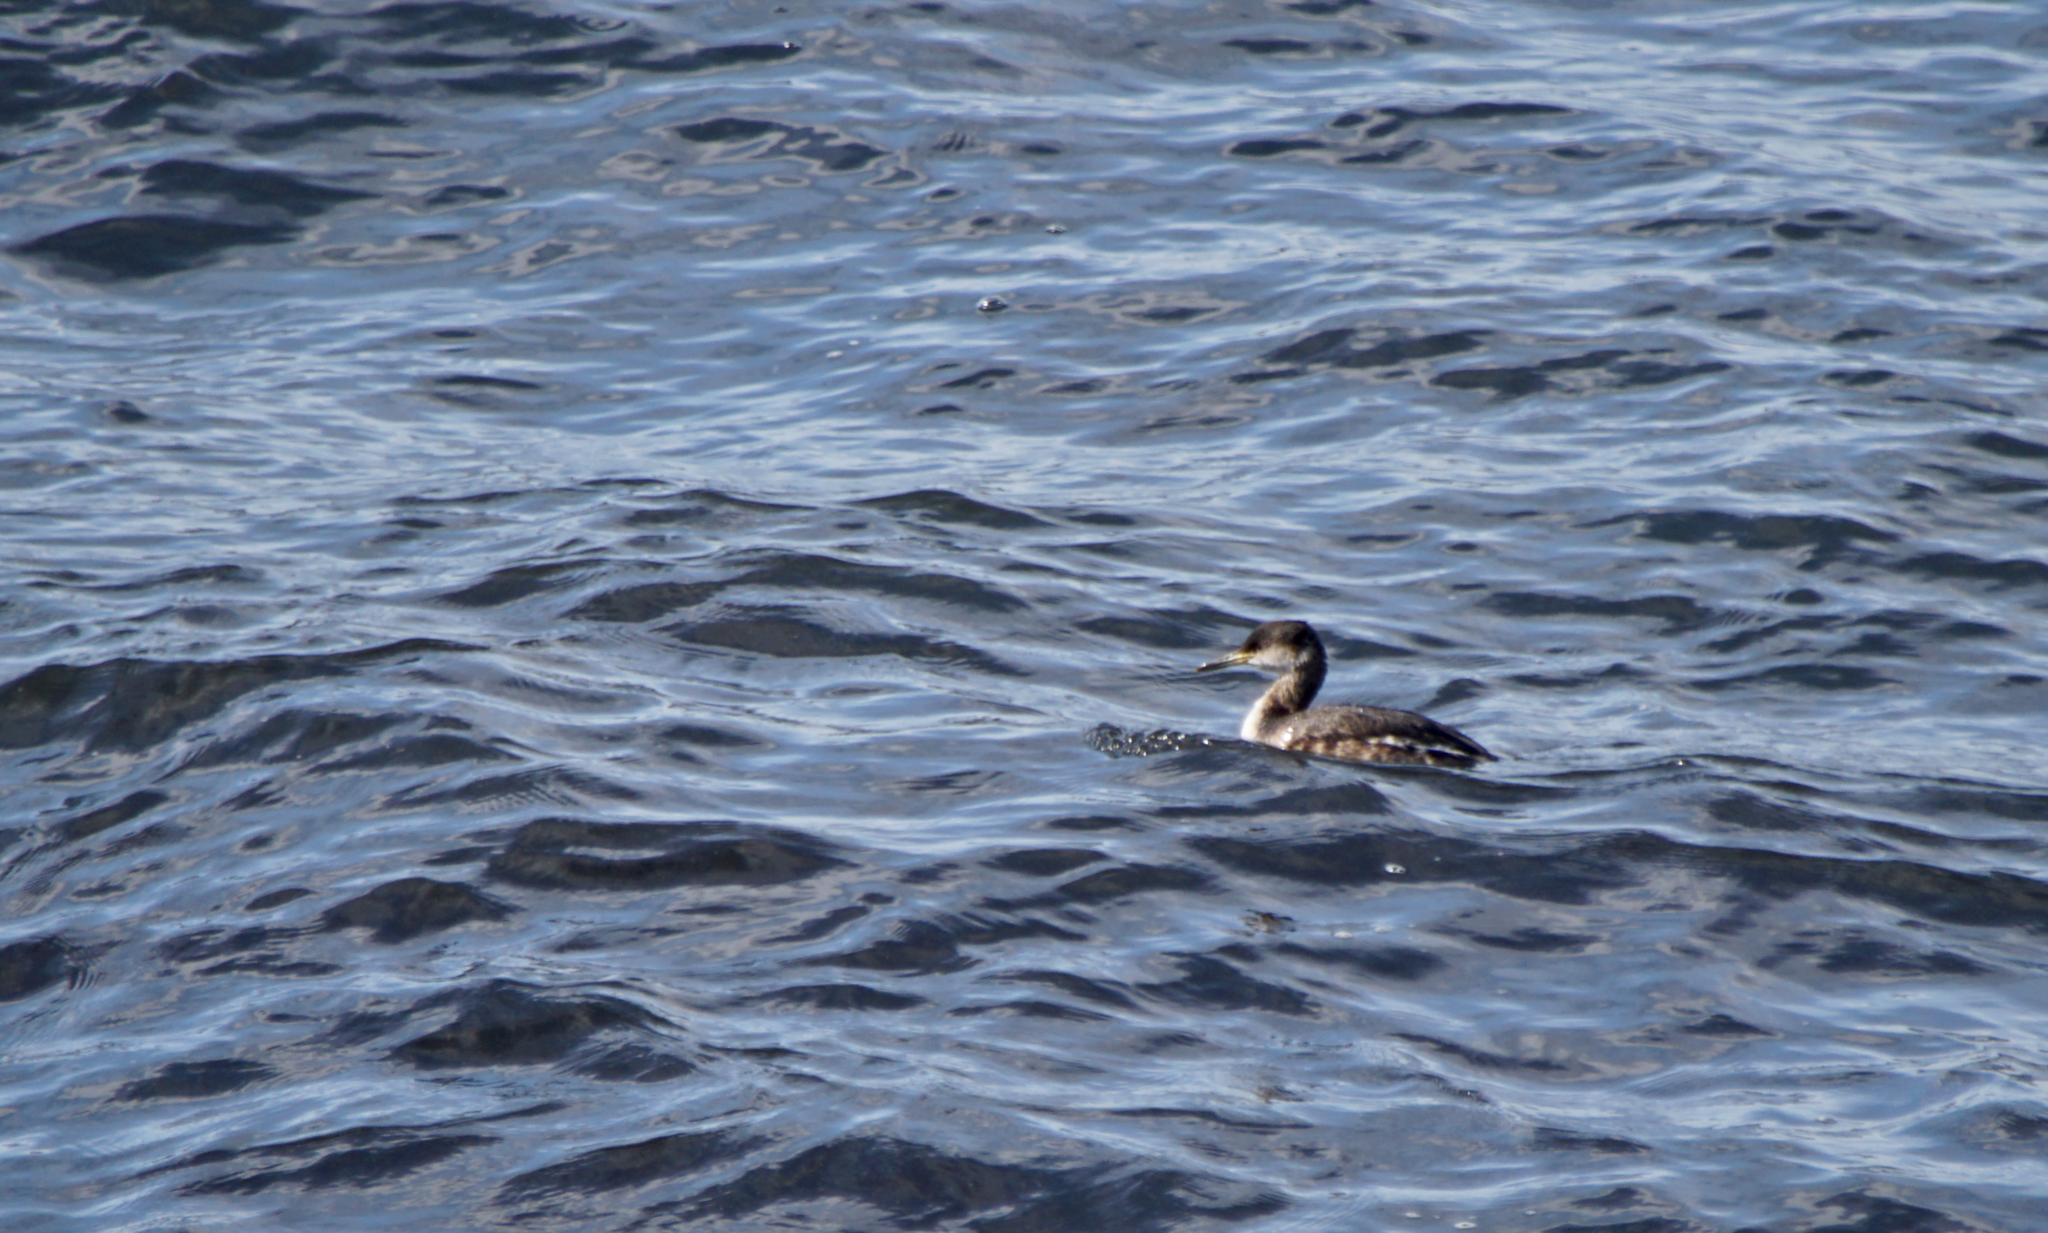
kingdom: Animalia
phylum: Chordata
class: Aves
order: Podicipediformes
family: Podicipedidae
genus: Podiceps
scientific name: Podiceps grisegena
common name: Red-necked grebe
